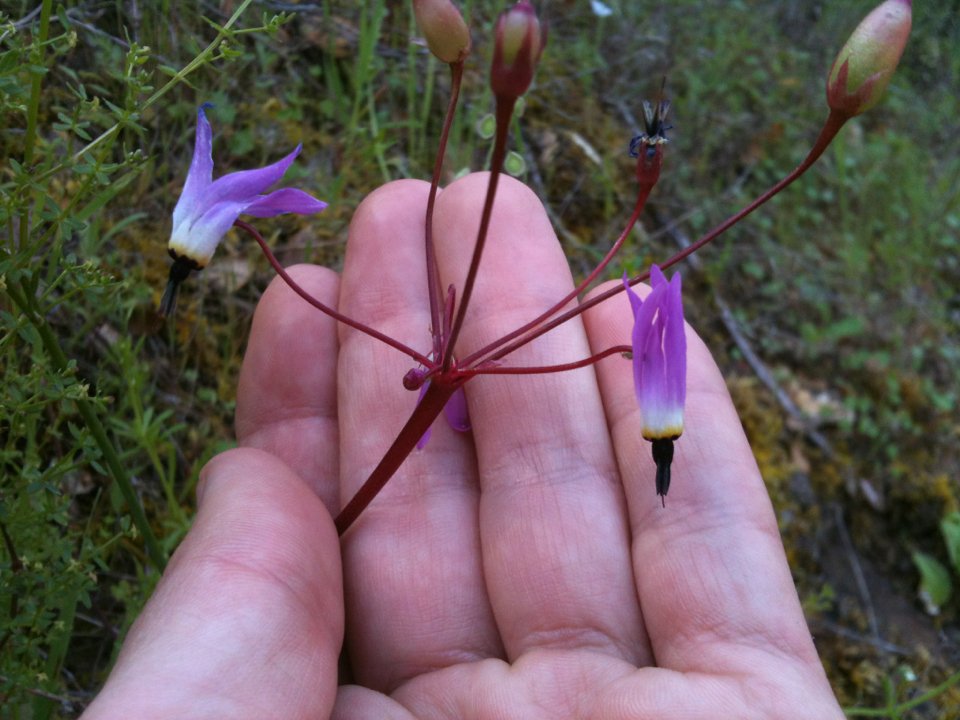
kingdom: Plantae
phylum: Tracheophyta
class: Magnoliopsida
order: Ericales
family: Primulaceae
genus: Dodecatheon
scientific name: Dodecatheon hendersonii
